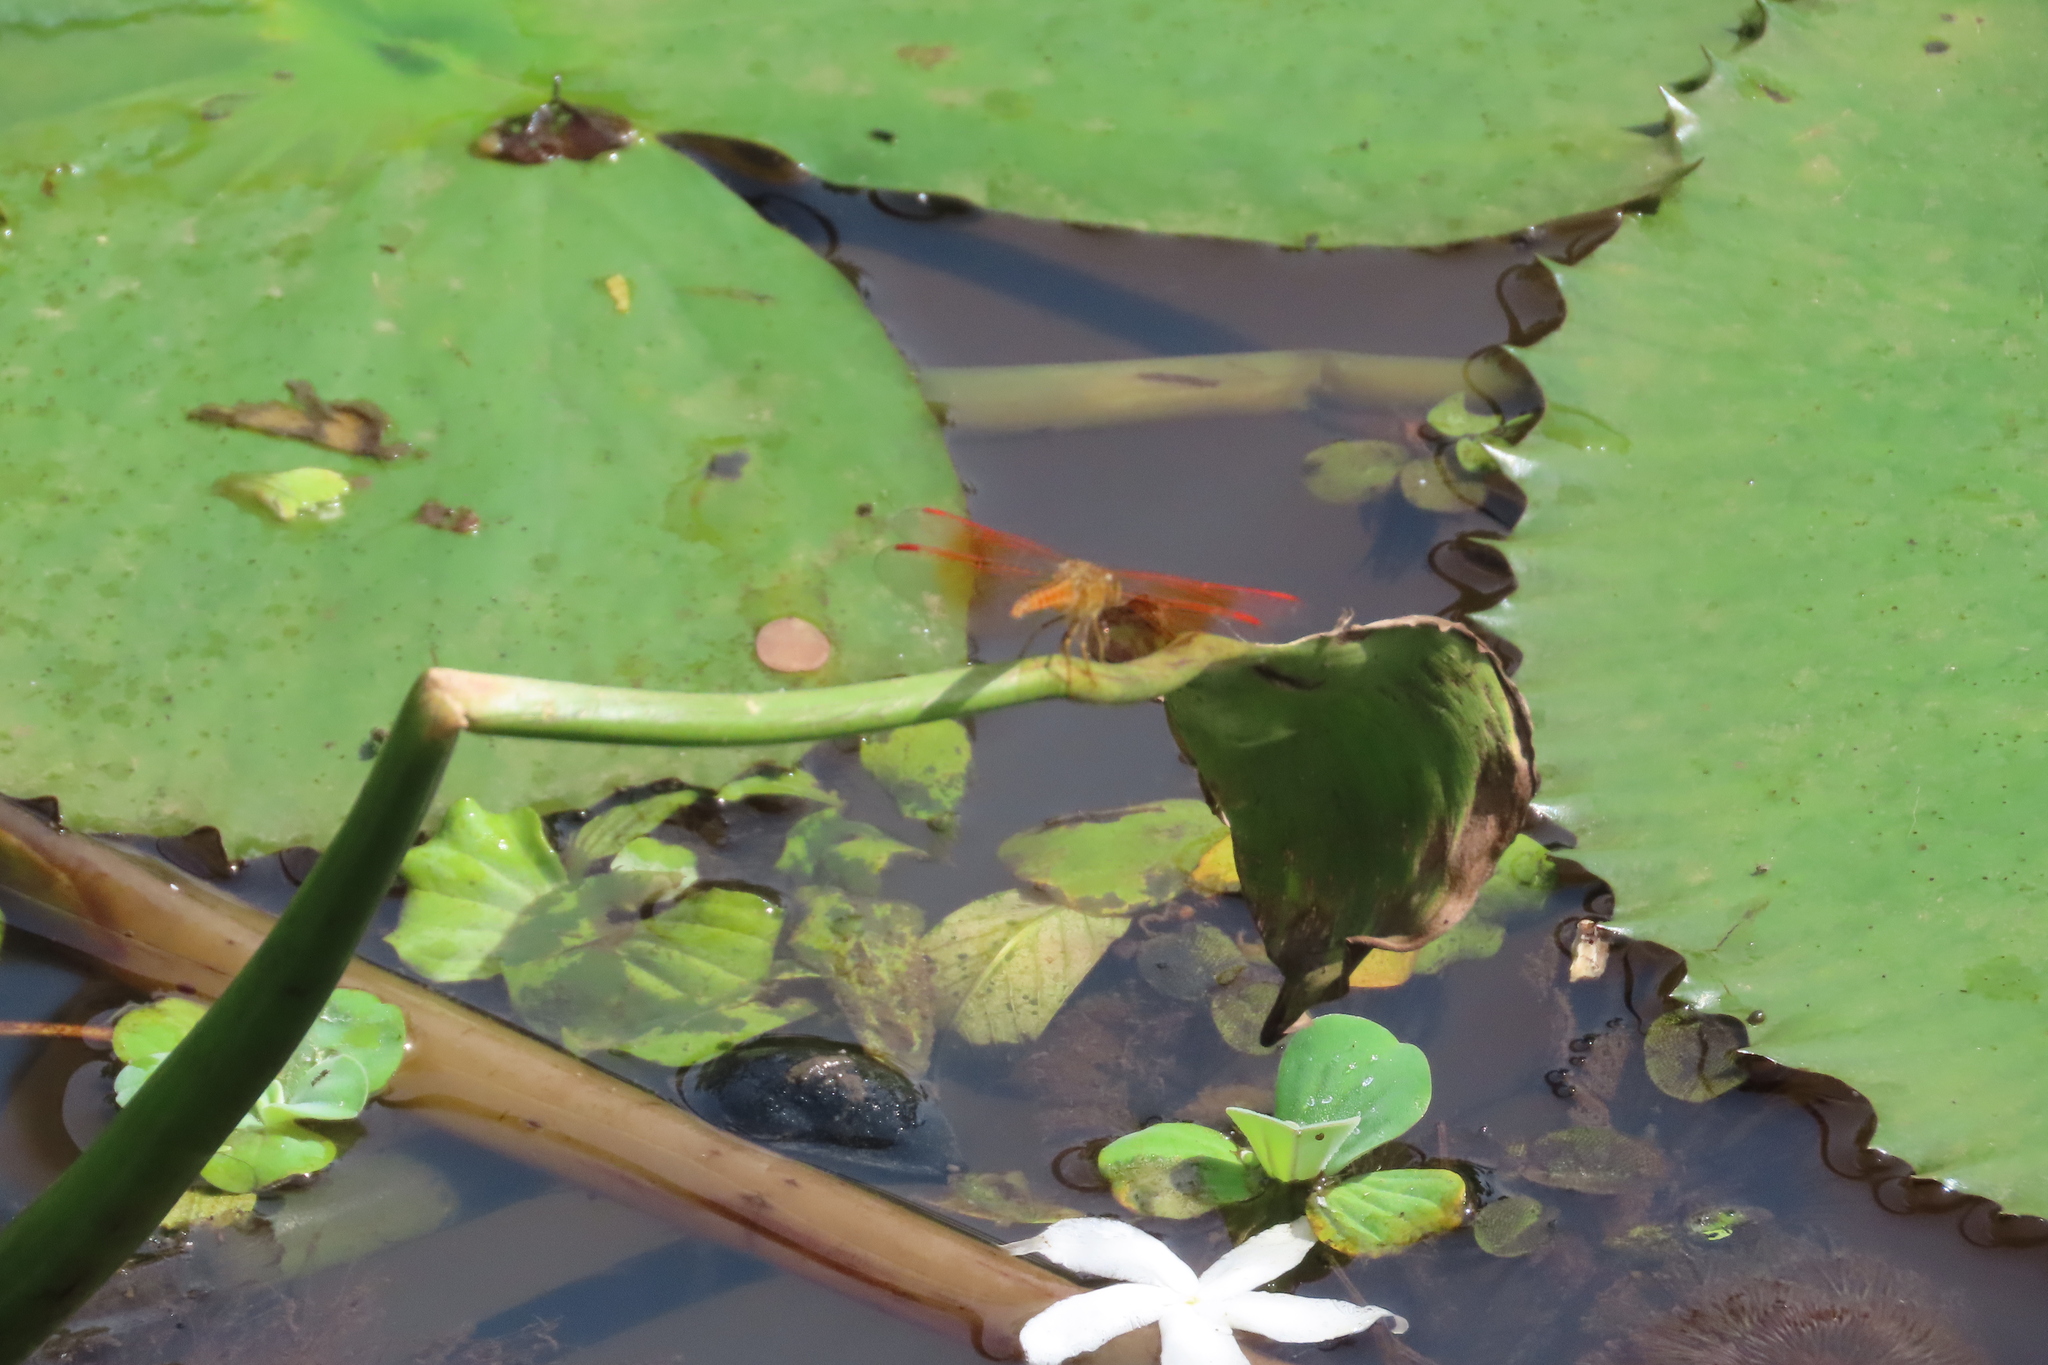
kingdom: Animalia
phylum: Arthropoda
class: Insecta
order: Odonata
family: Libellulidae
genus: Brachythemis
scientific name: Brachythemis contaminata
